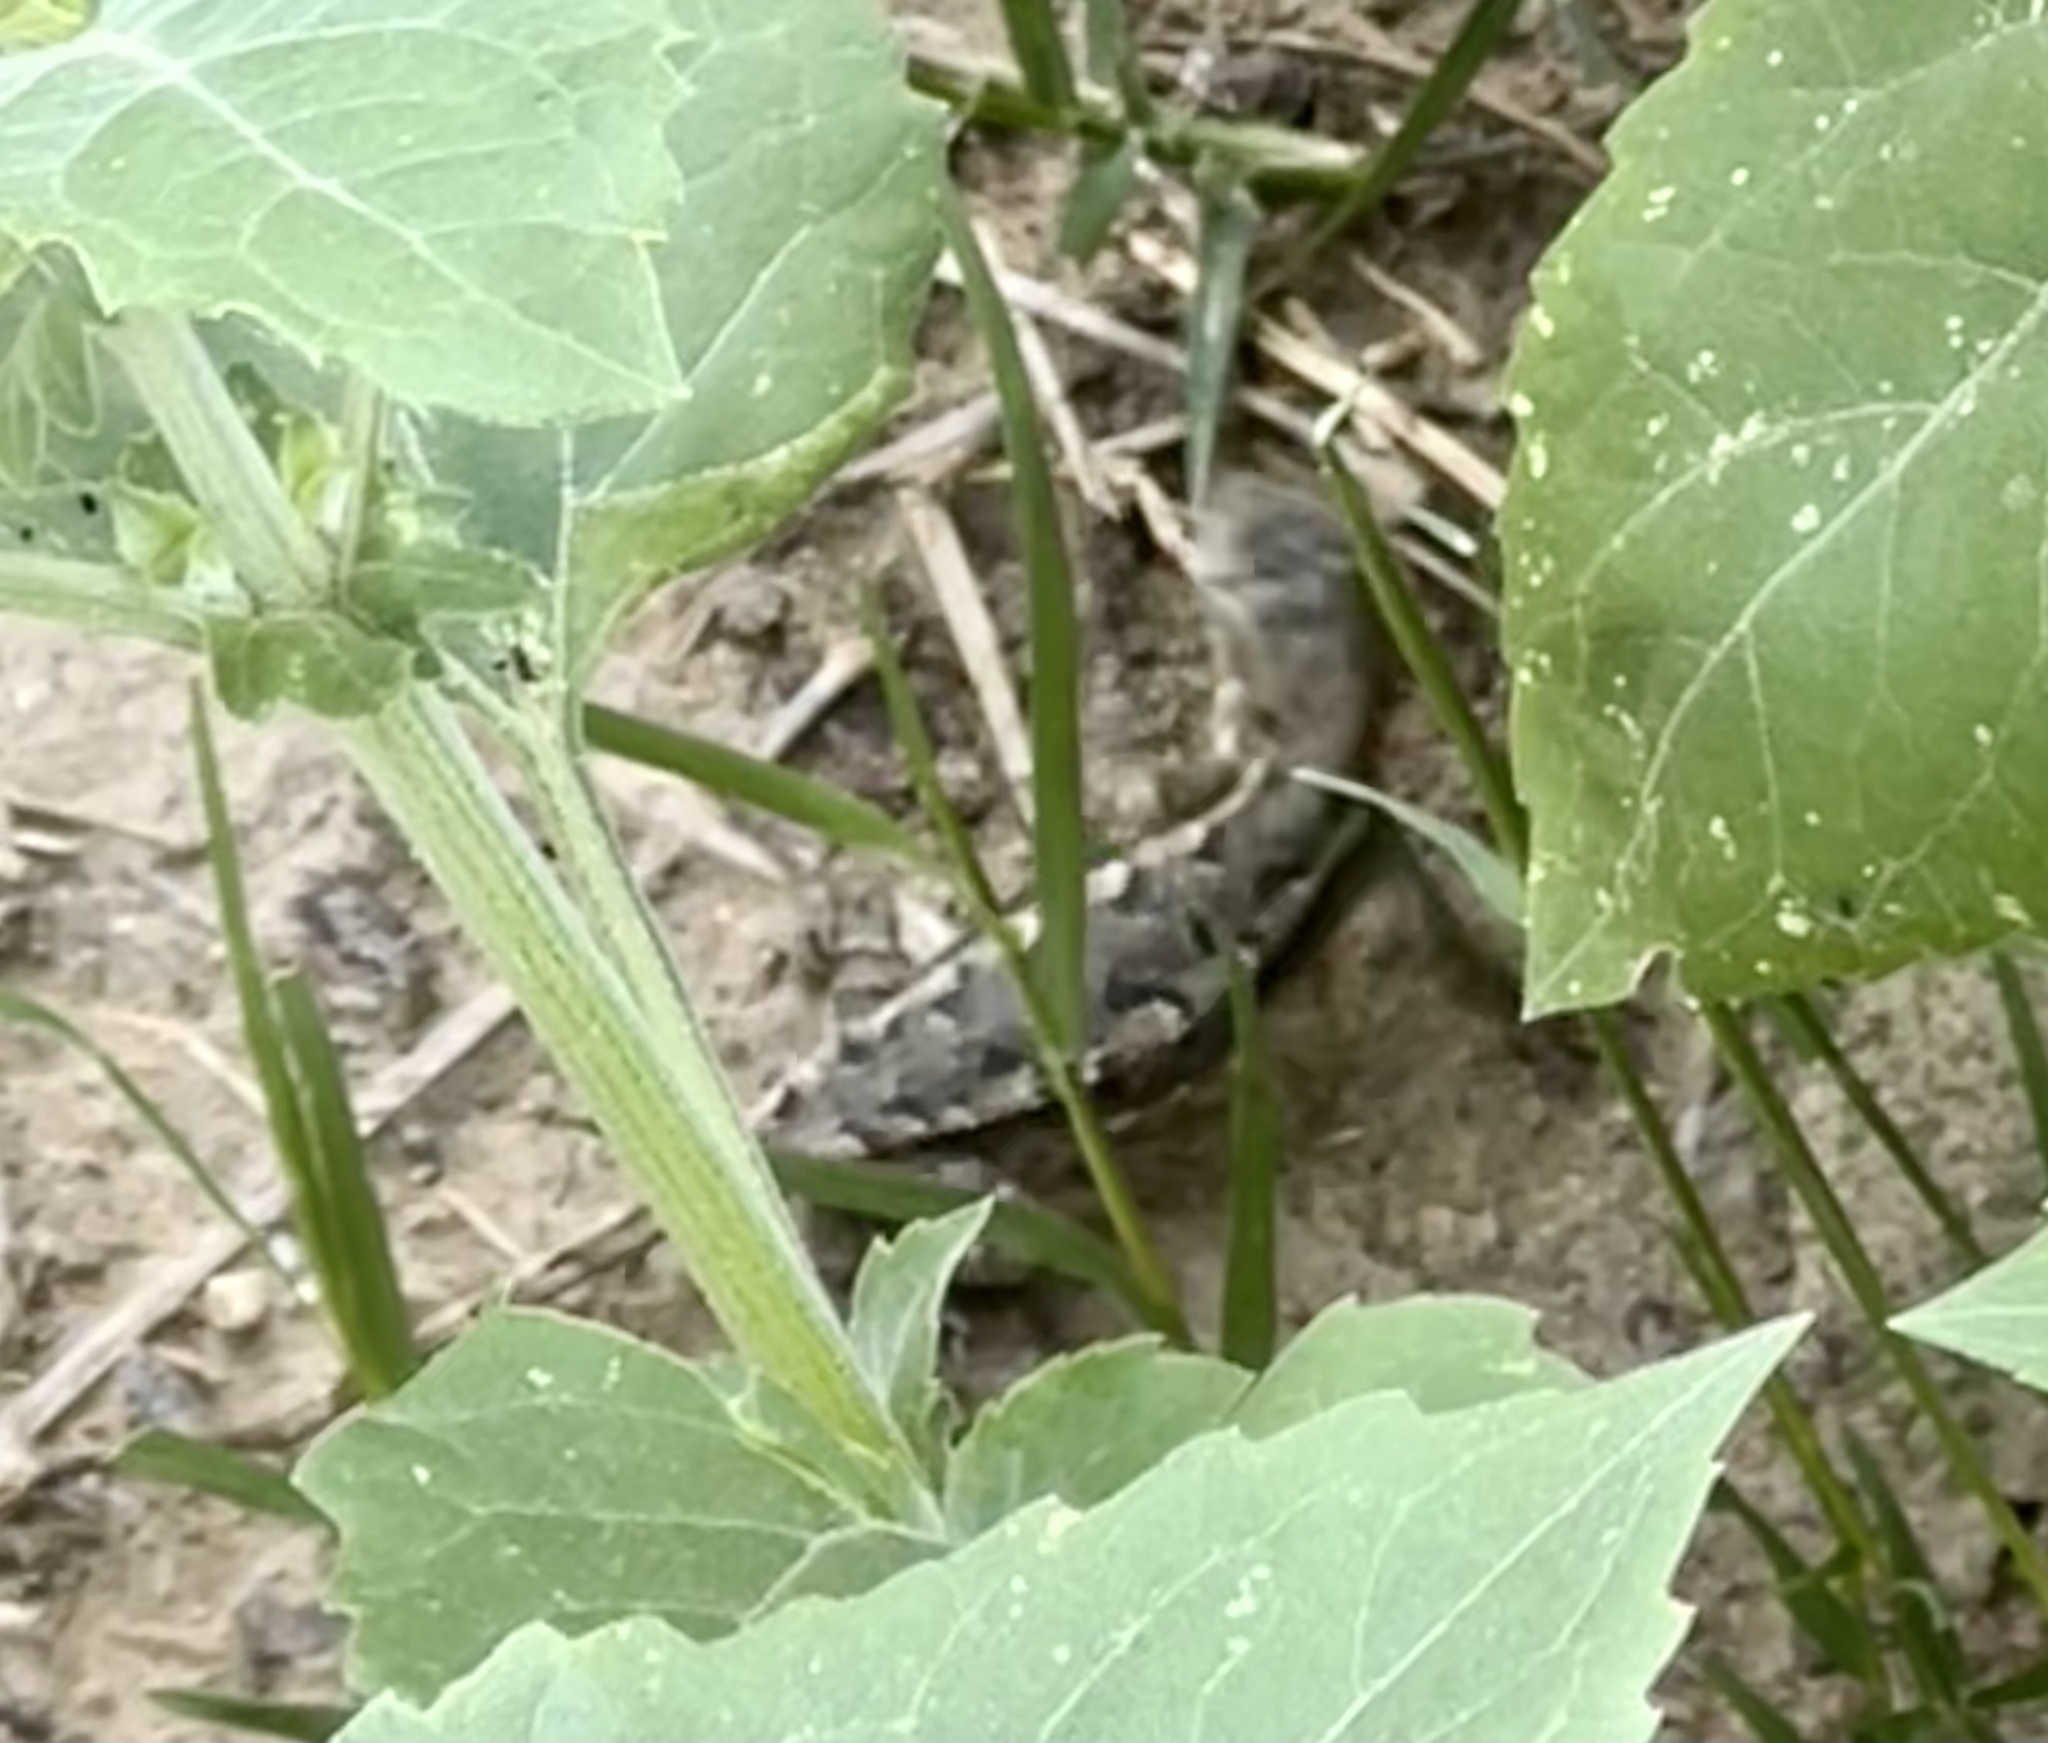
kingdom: Animalia
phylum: Chordata
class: Squamata
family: Phrynosomatidae
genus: Sceloporus
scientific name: Sceloporus olivaceus
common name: Texas spiny lizard
